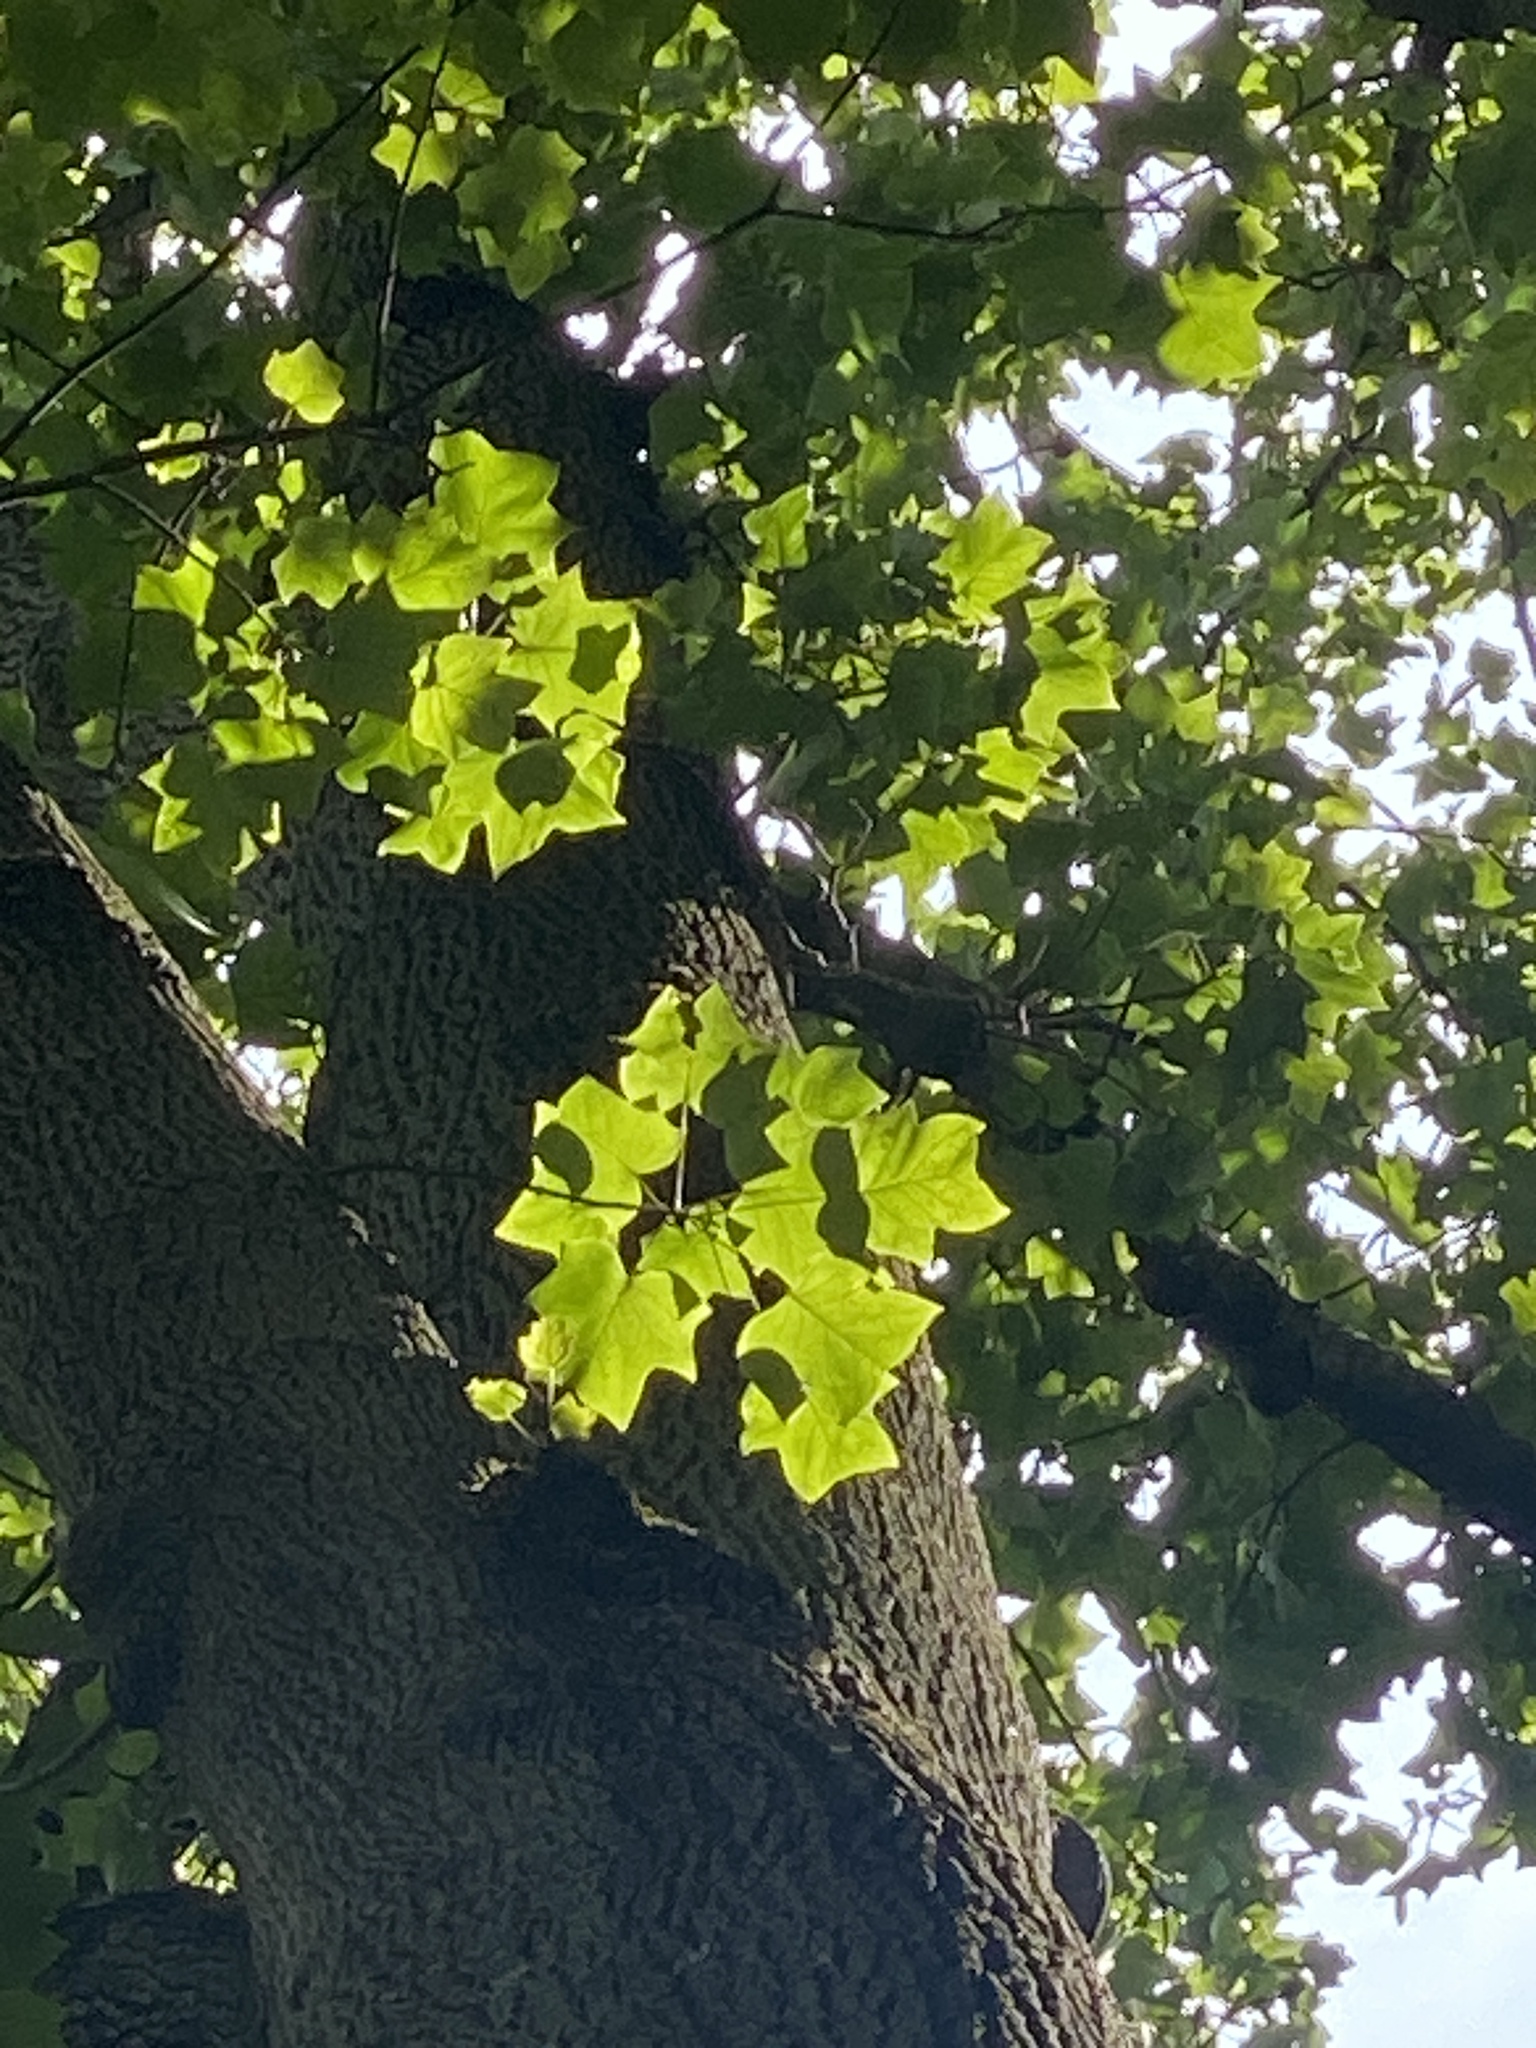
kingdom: Plantae
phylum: Tracheophyta
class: Magnoliopsida
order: Magnoliales
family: Magnoliaceae
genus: Liriodendron
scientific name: Liriodendron tulipifera
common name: Tulip tree
